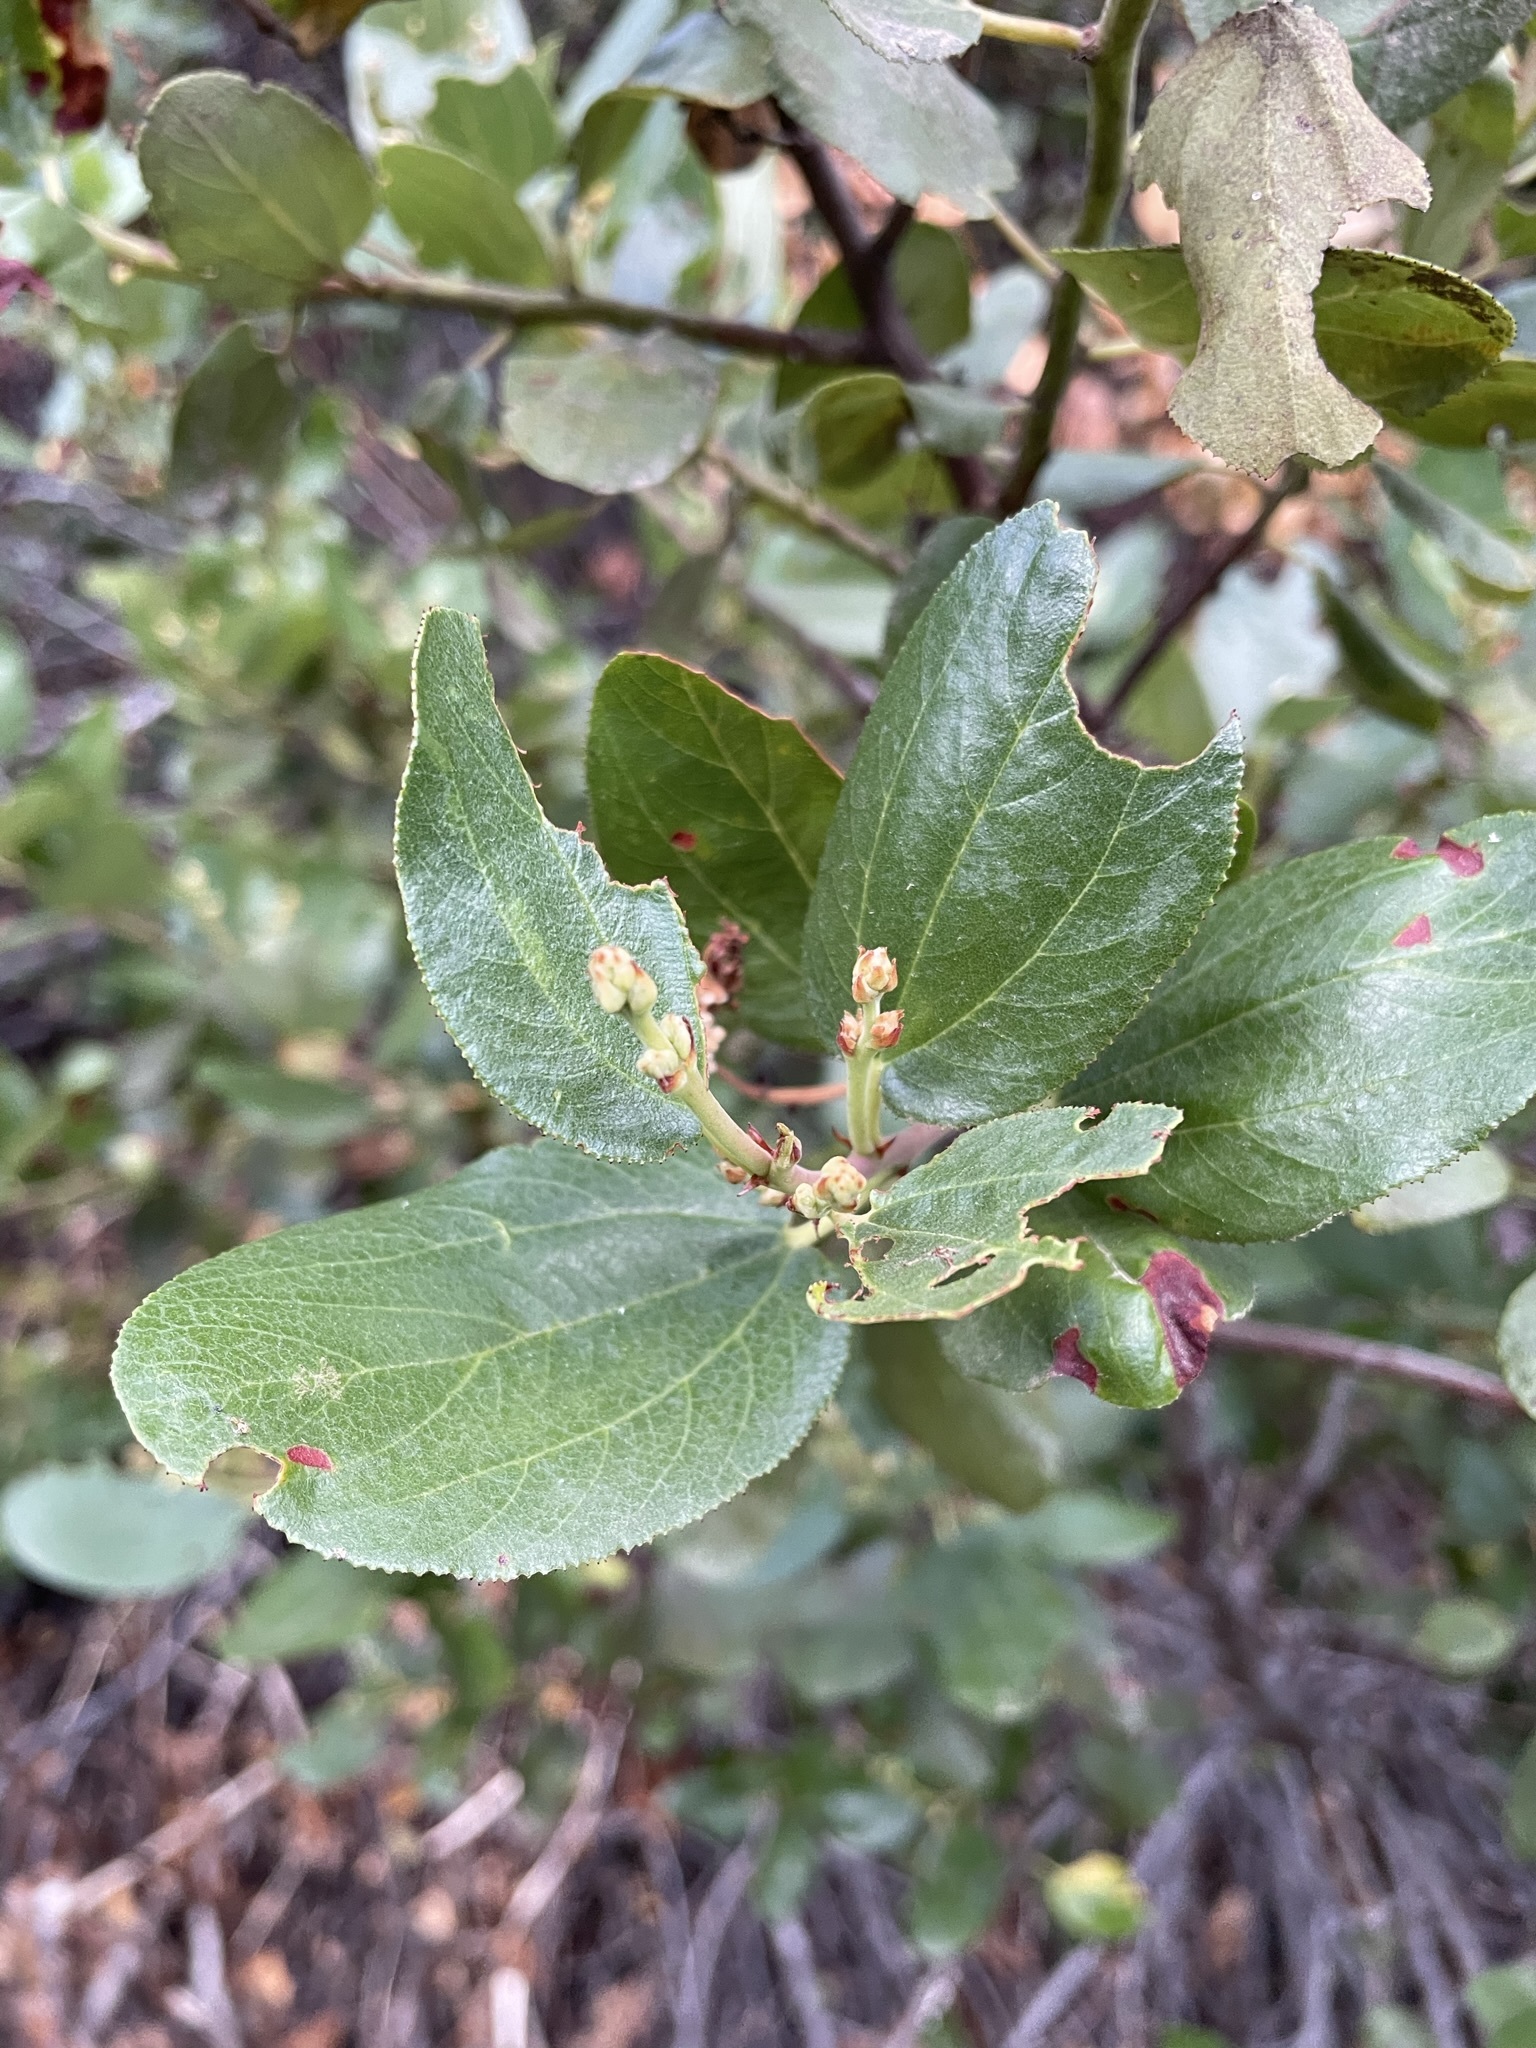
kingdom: Plantae
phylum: Tracheophyta
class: Magnoliopsida
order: Rosales
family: Rhamnaceae
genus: Ceanothus
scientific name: Ceanothus velutinus
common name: Snowbrush
